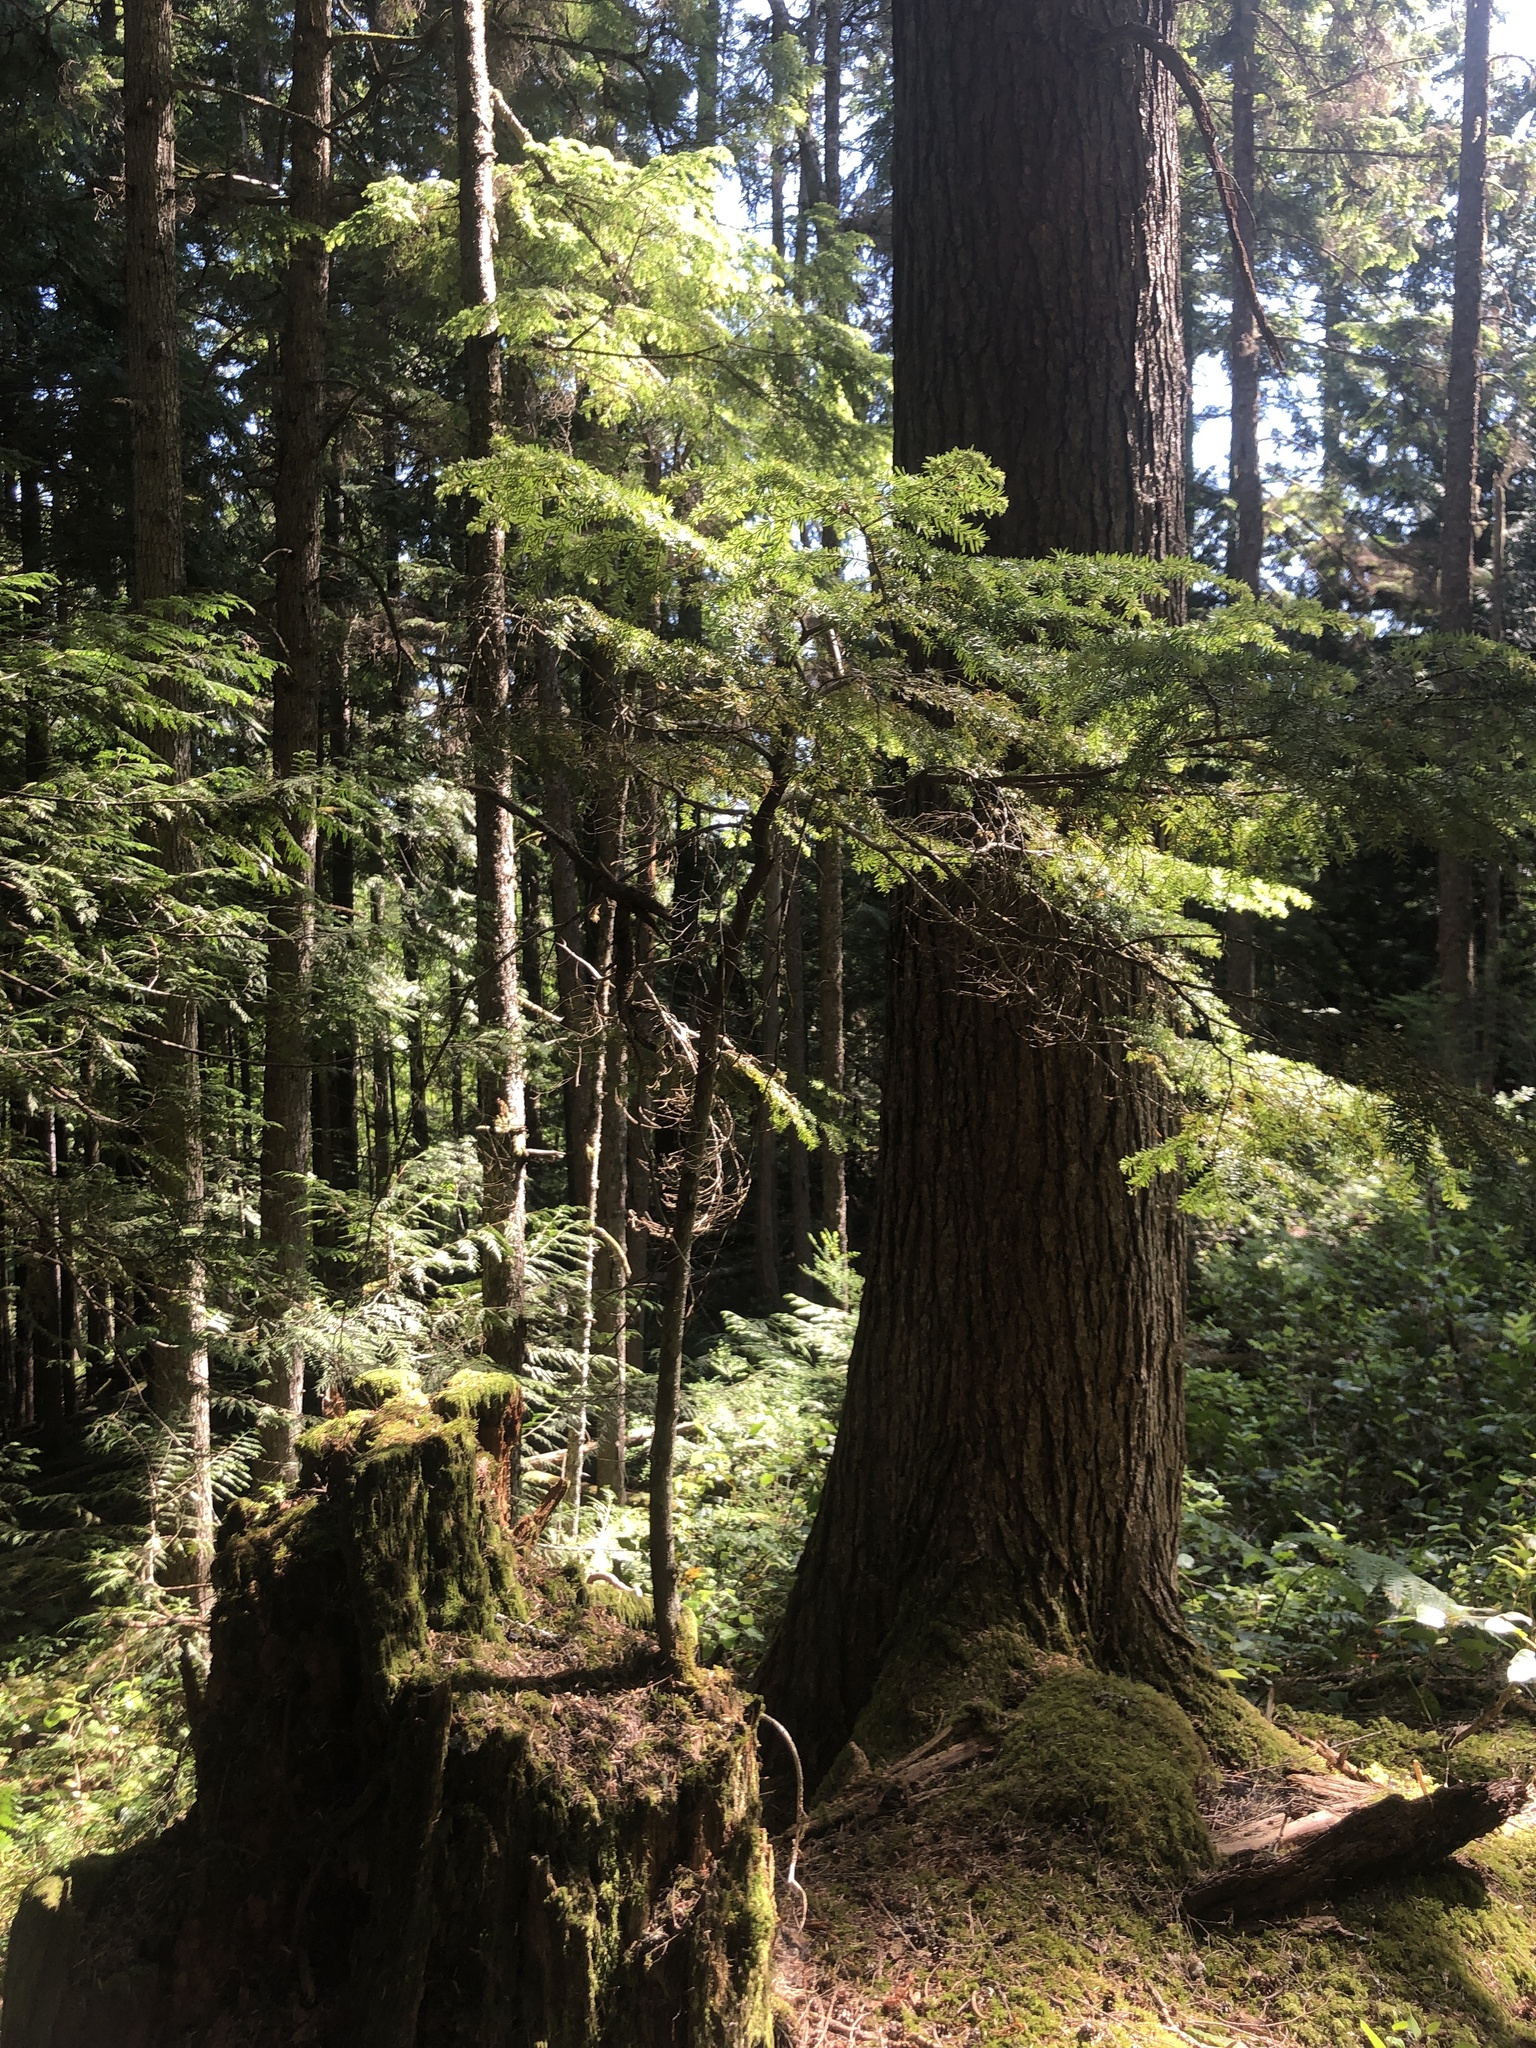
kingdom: Plantae
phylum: Tracheophyta
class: Pinopsida
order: Pinales
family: Pinaceae
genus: Tsuga
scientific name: Tsuga heterophylla
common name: Western hemlock
